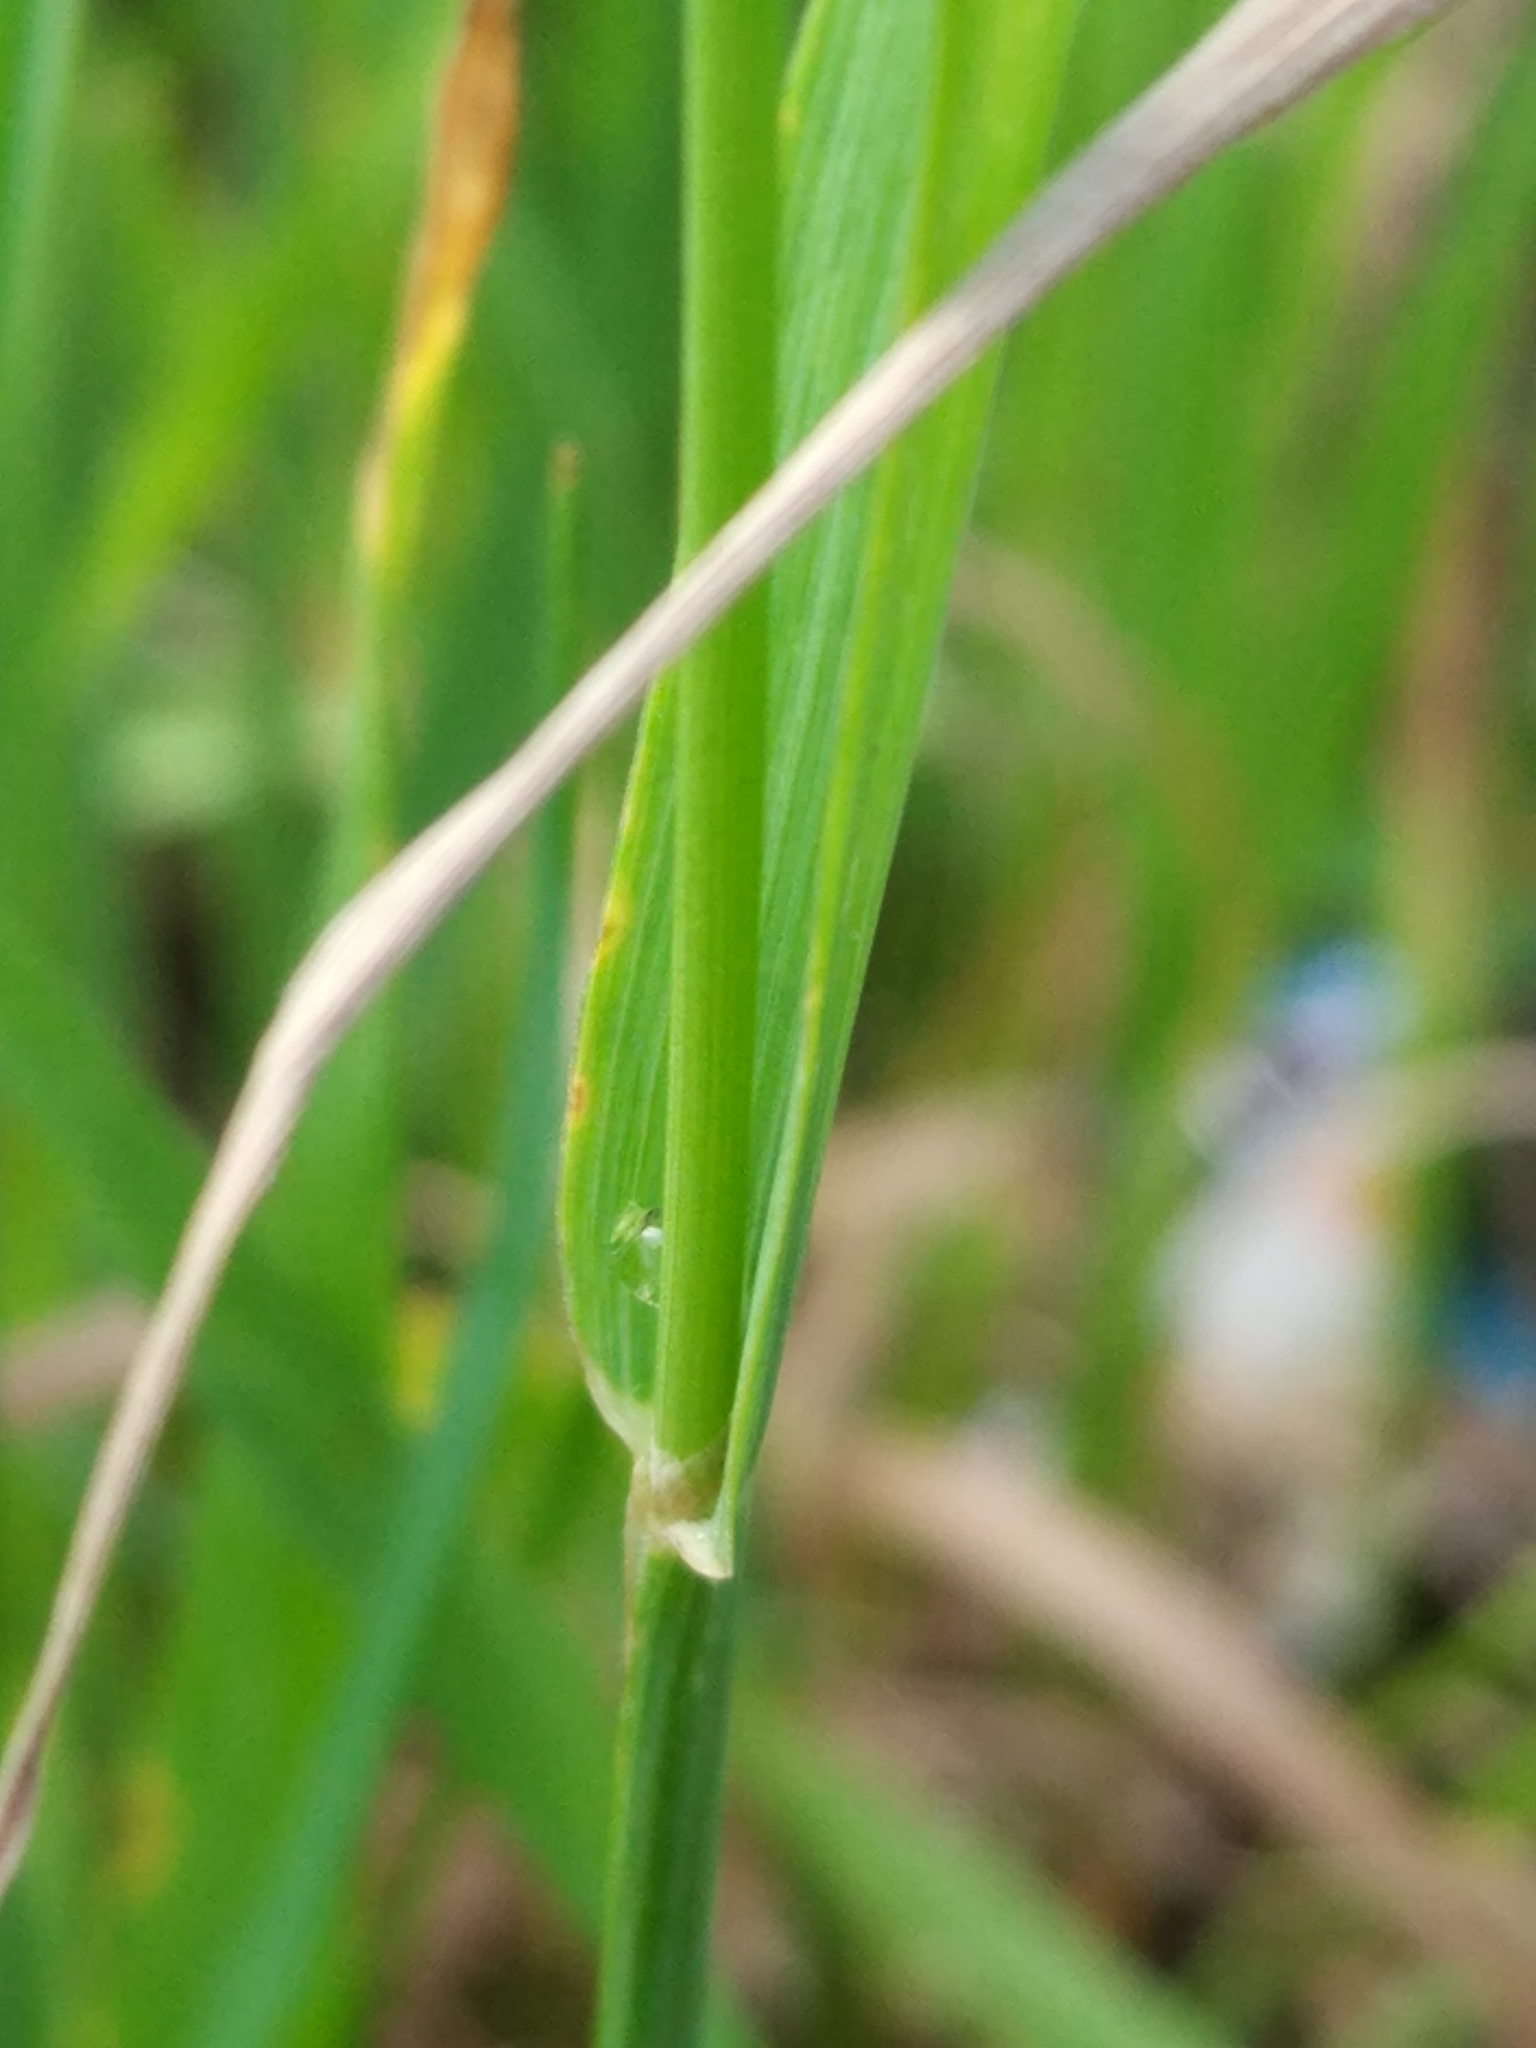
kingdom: Plantae
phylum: Tracheophyta
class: Liliopsida
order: Poales
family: Poaceae
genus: Phleum
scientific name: Phleum pratense
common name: Timothy grass
